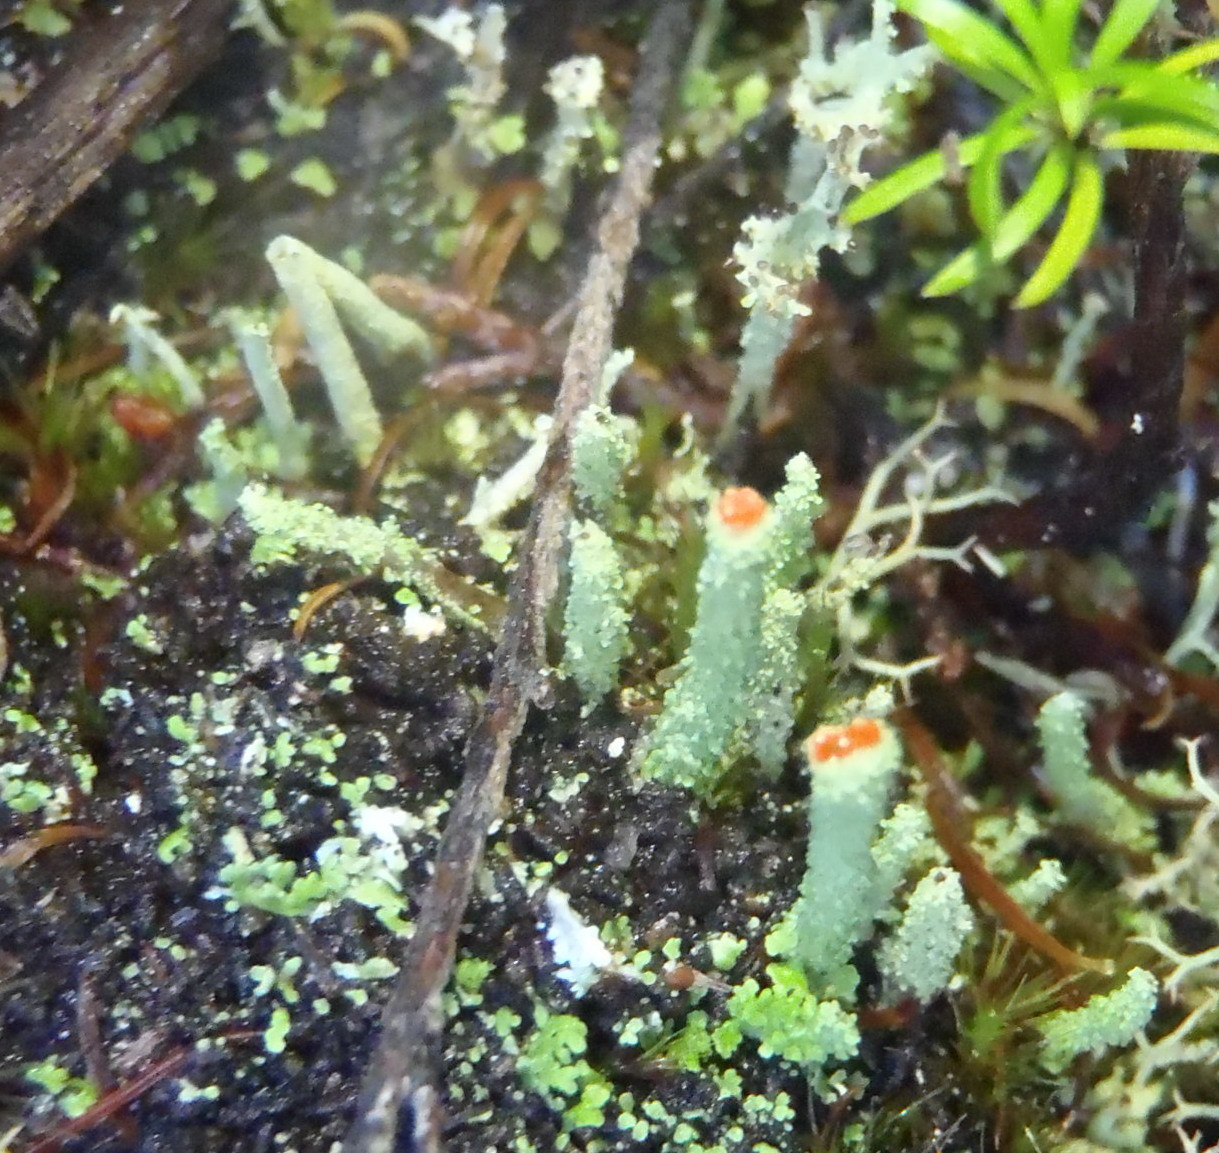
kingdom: Fungi
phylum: Ascomycota
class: Lecanoromycetes
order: Lecanorales
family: Cladoniaceae
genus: Cladonia
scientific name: Cladonia macilenta
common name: Lipstick powderhorn
